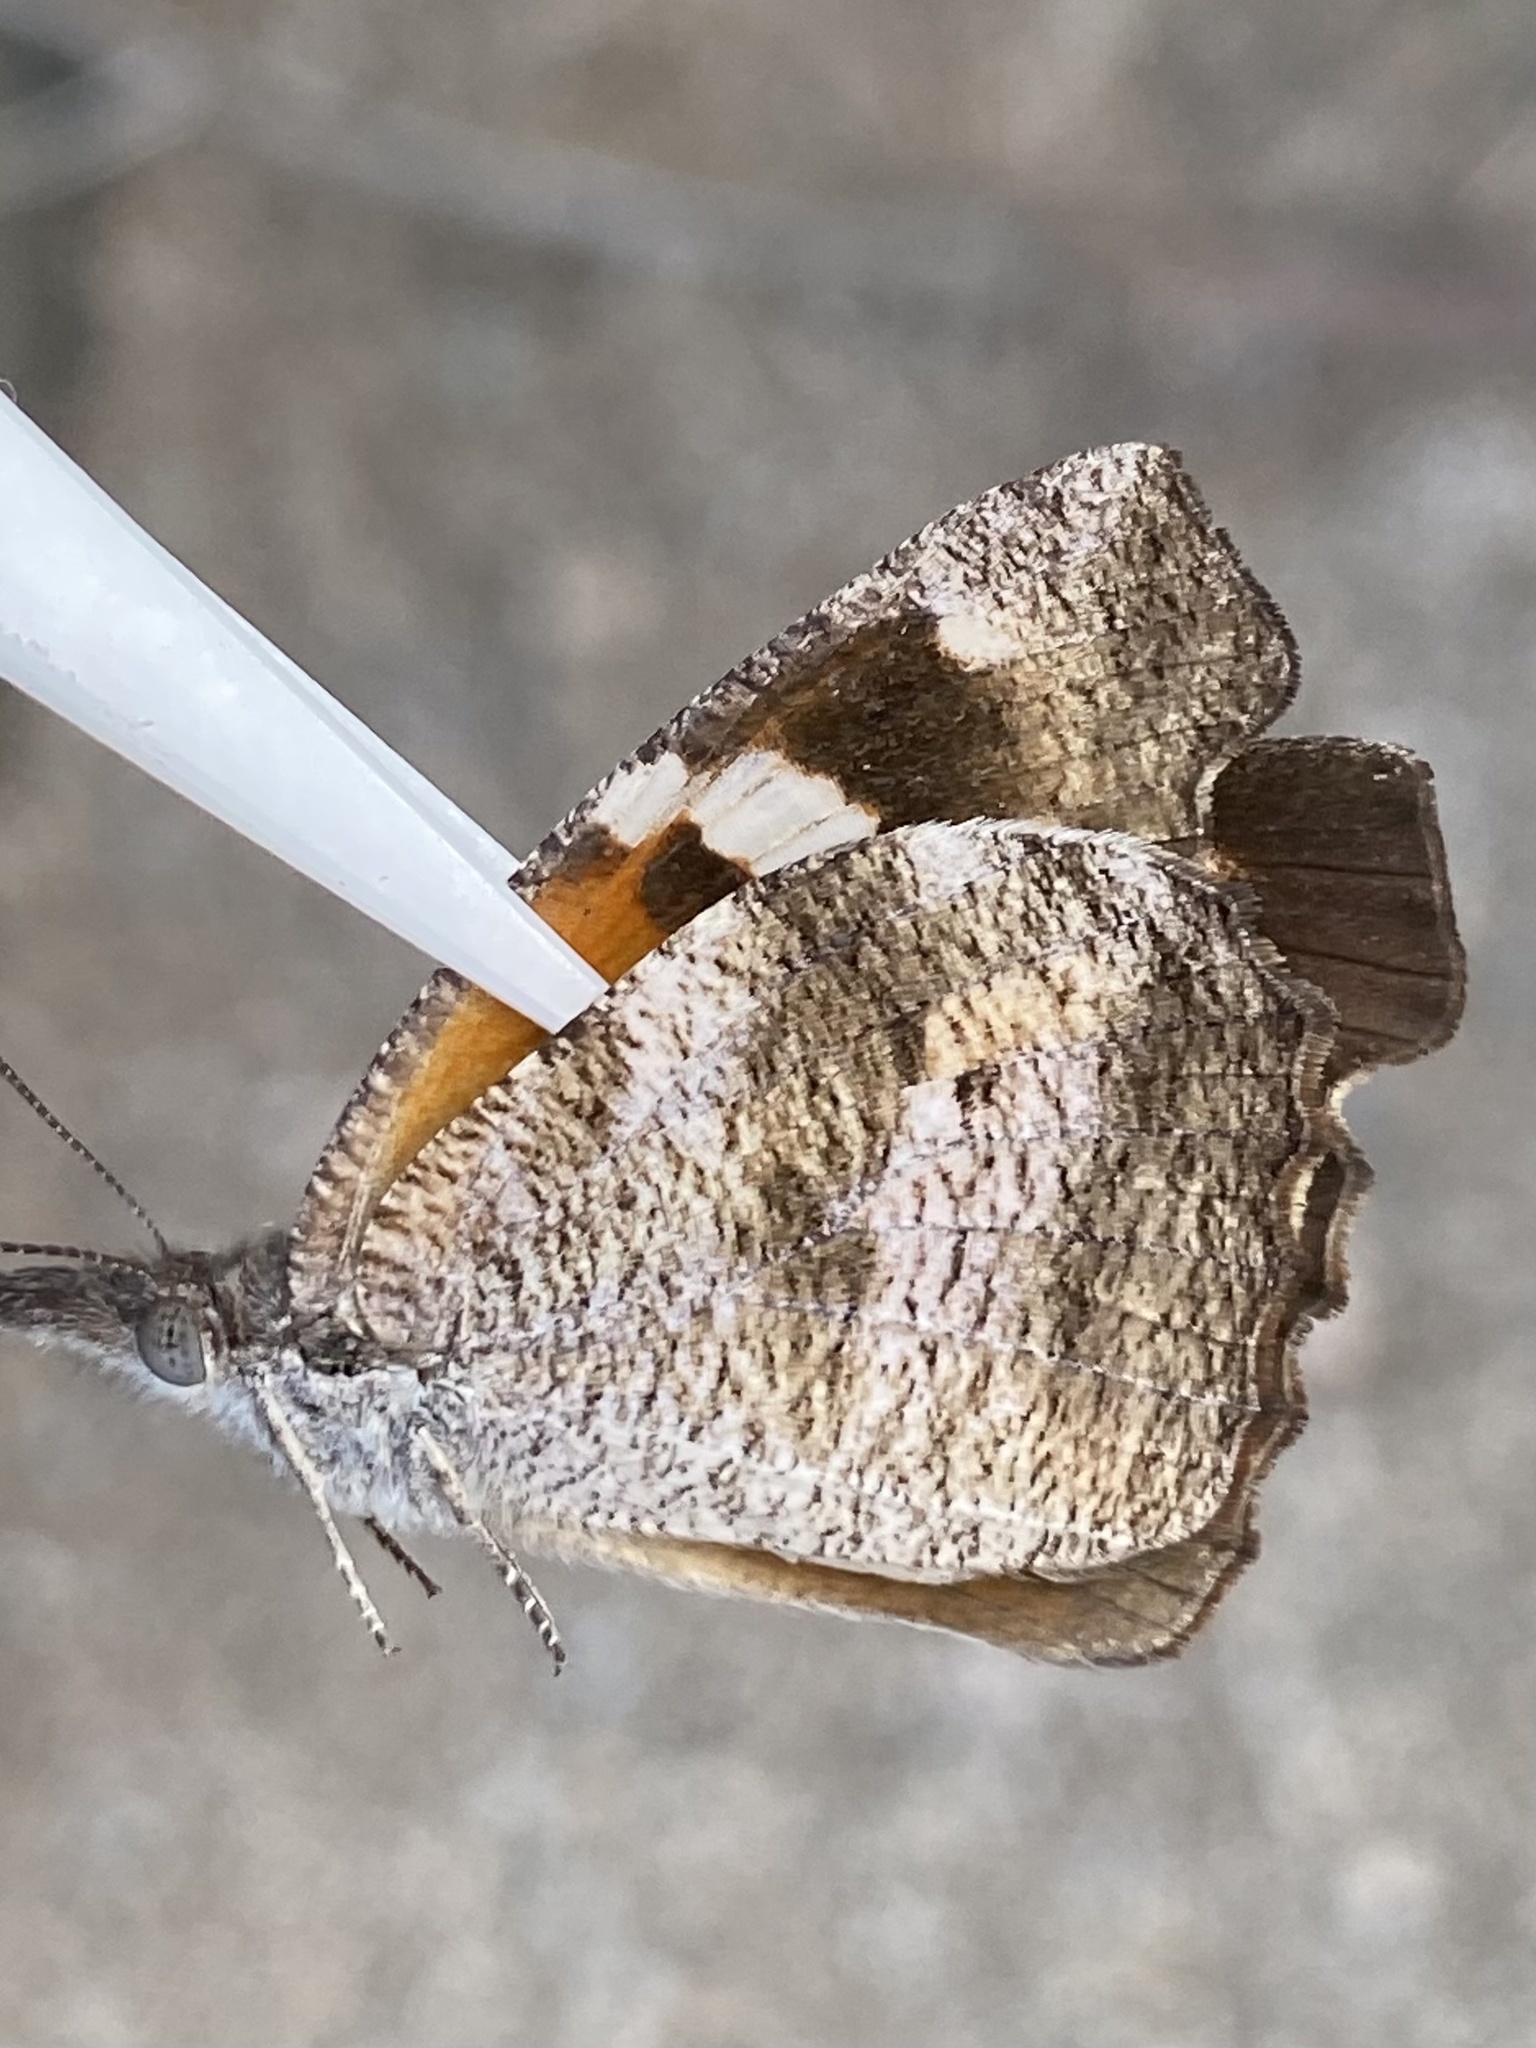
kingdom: Animalia
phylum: Arthropoda
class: Insecta
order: Lepidoptera
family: Nymphalidae
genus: Libytheana
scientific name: Libytheana carinenta
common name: American snout
